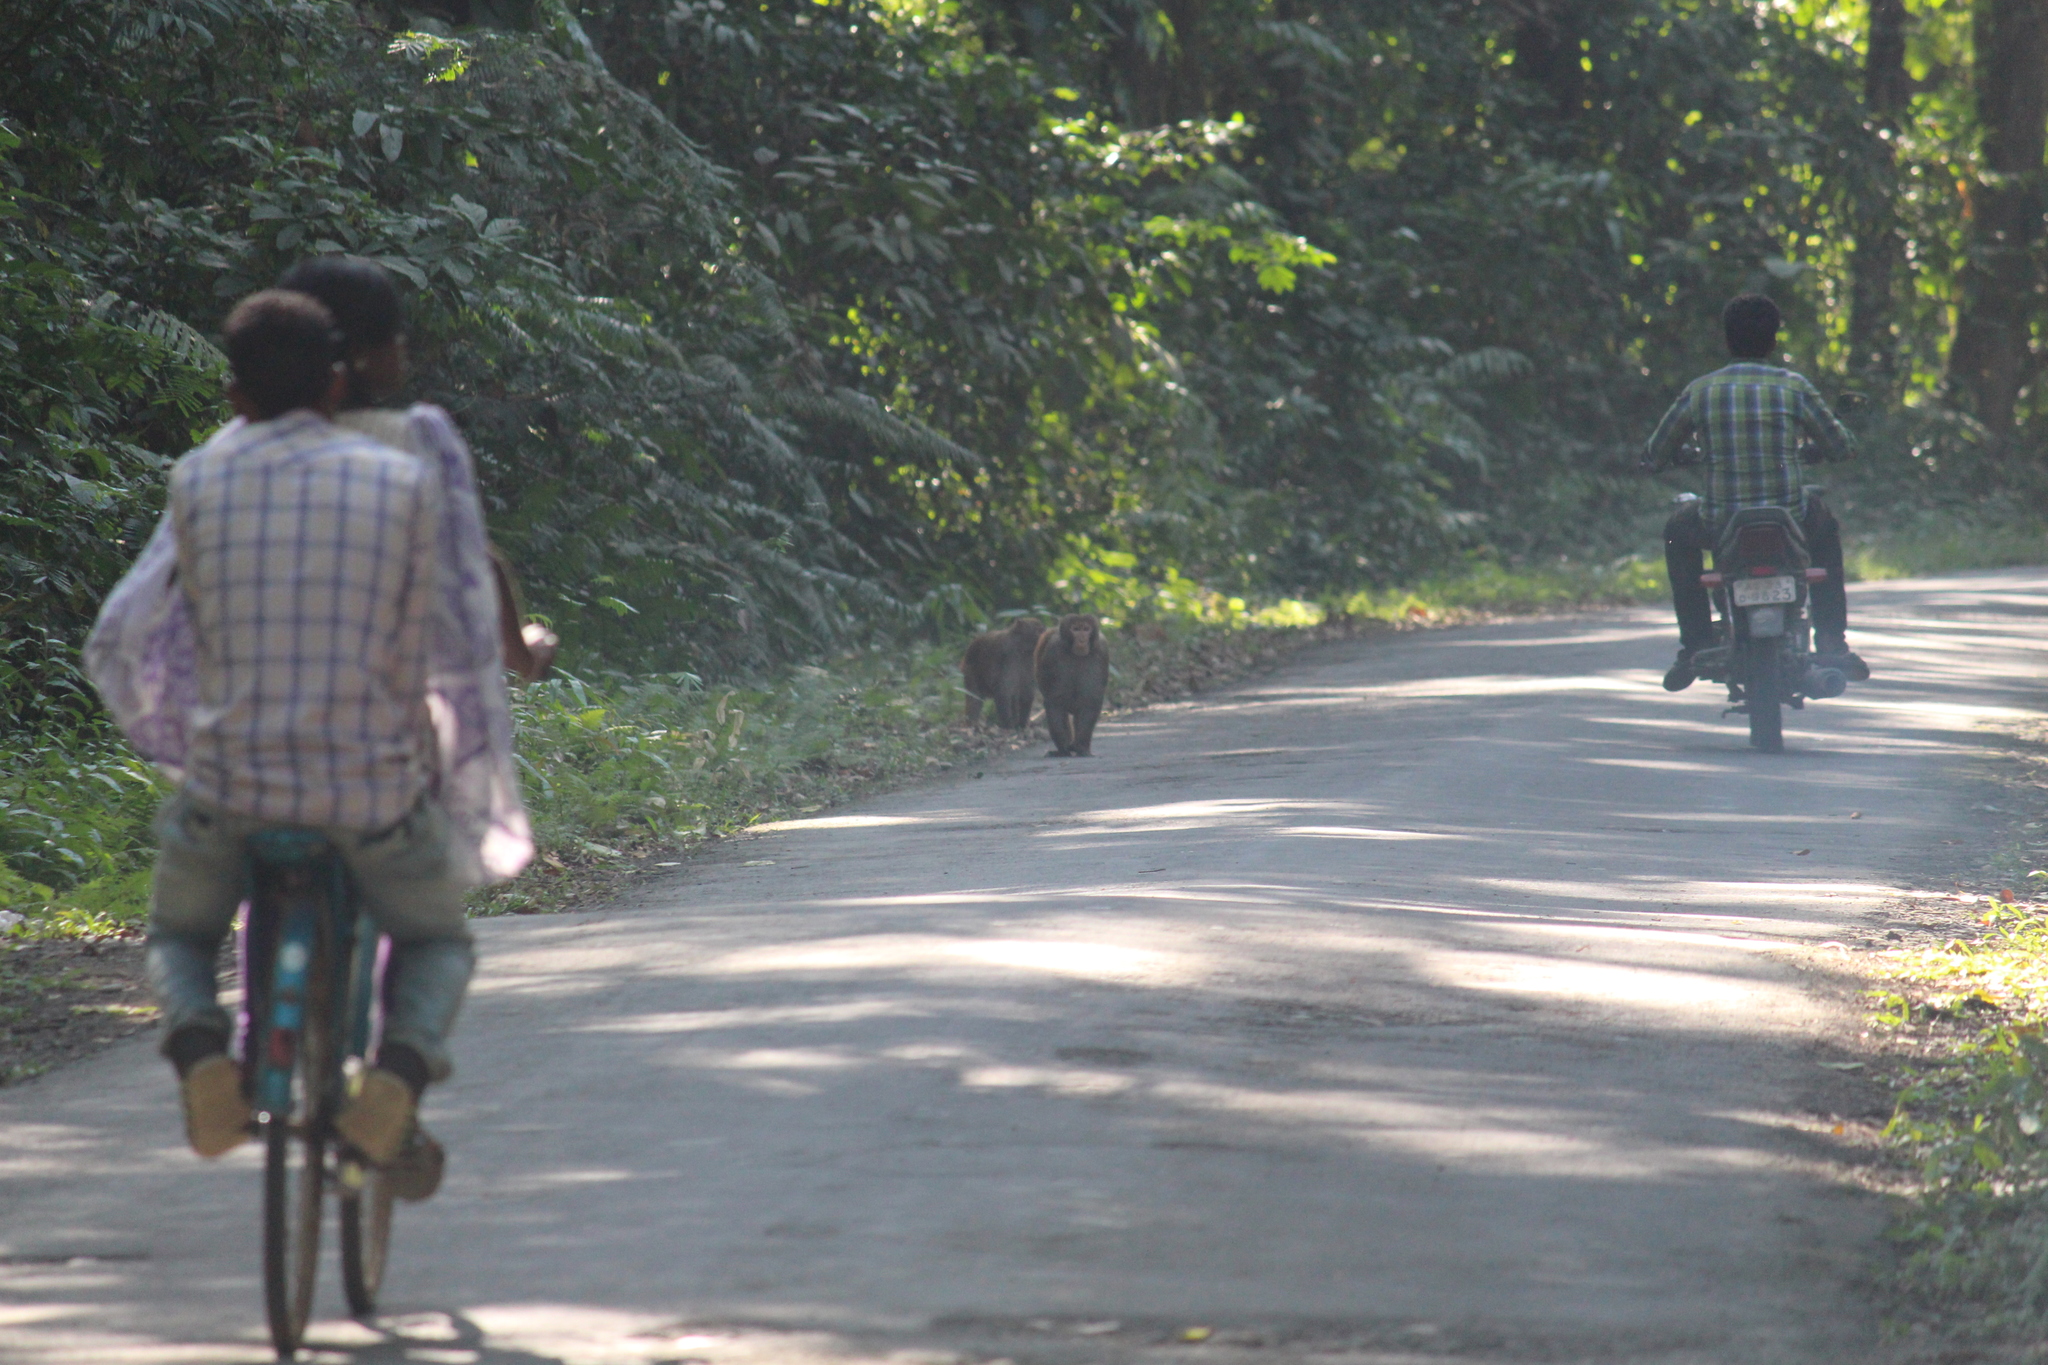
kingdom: Animalia
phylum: Chordata
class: Mammalia
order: Primates
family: Cercopithecidae
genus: Macaca
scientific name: Macaca mulatta
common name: Rhesus monkey
